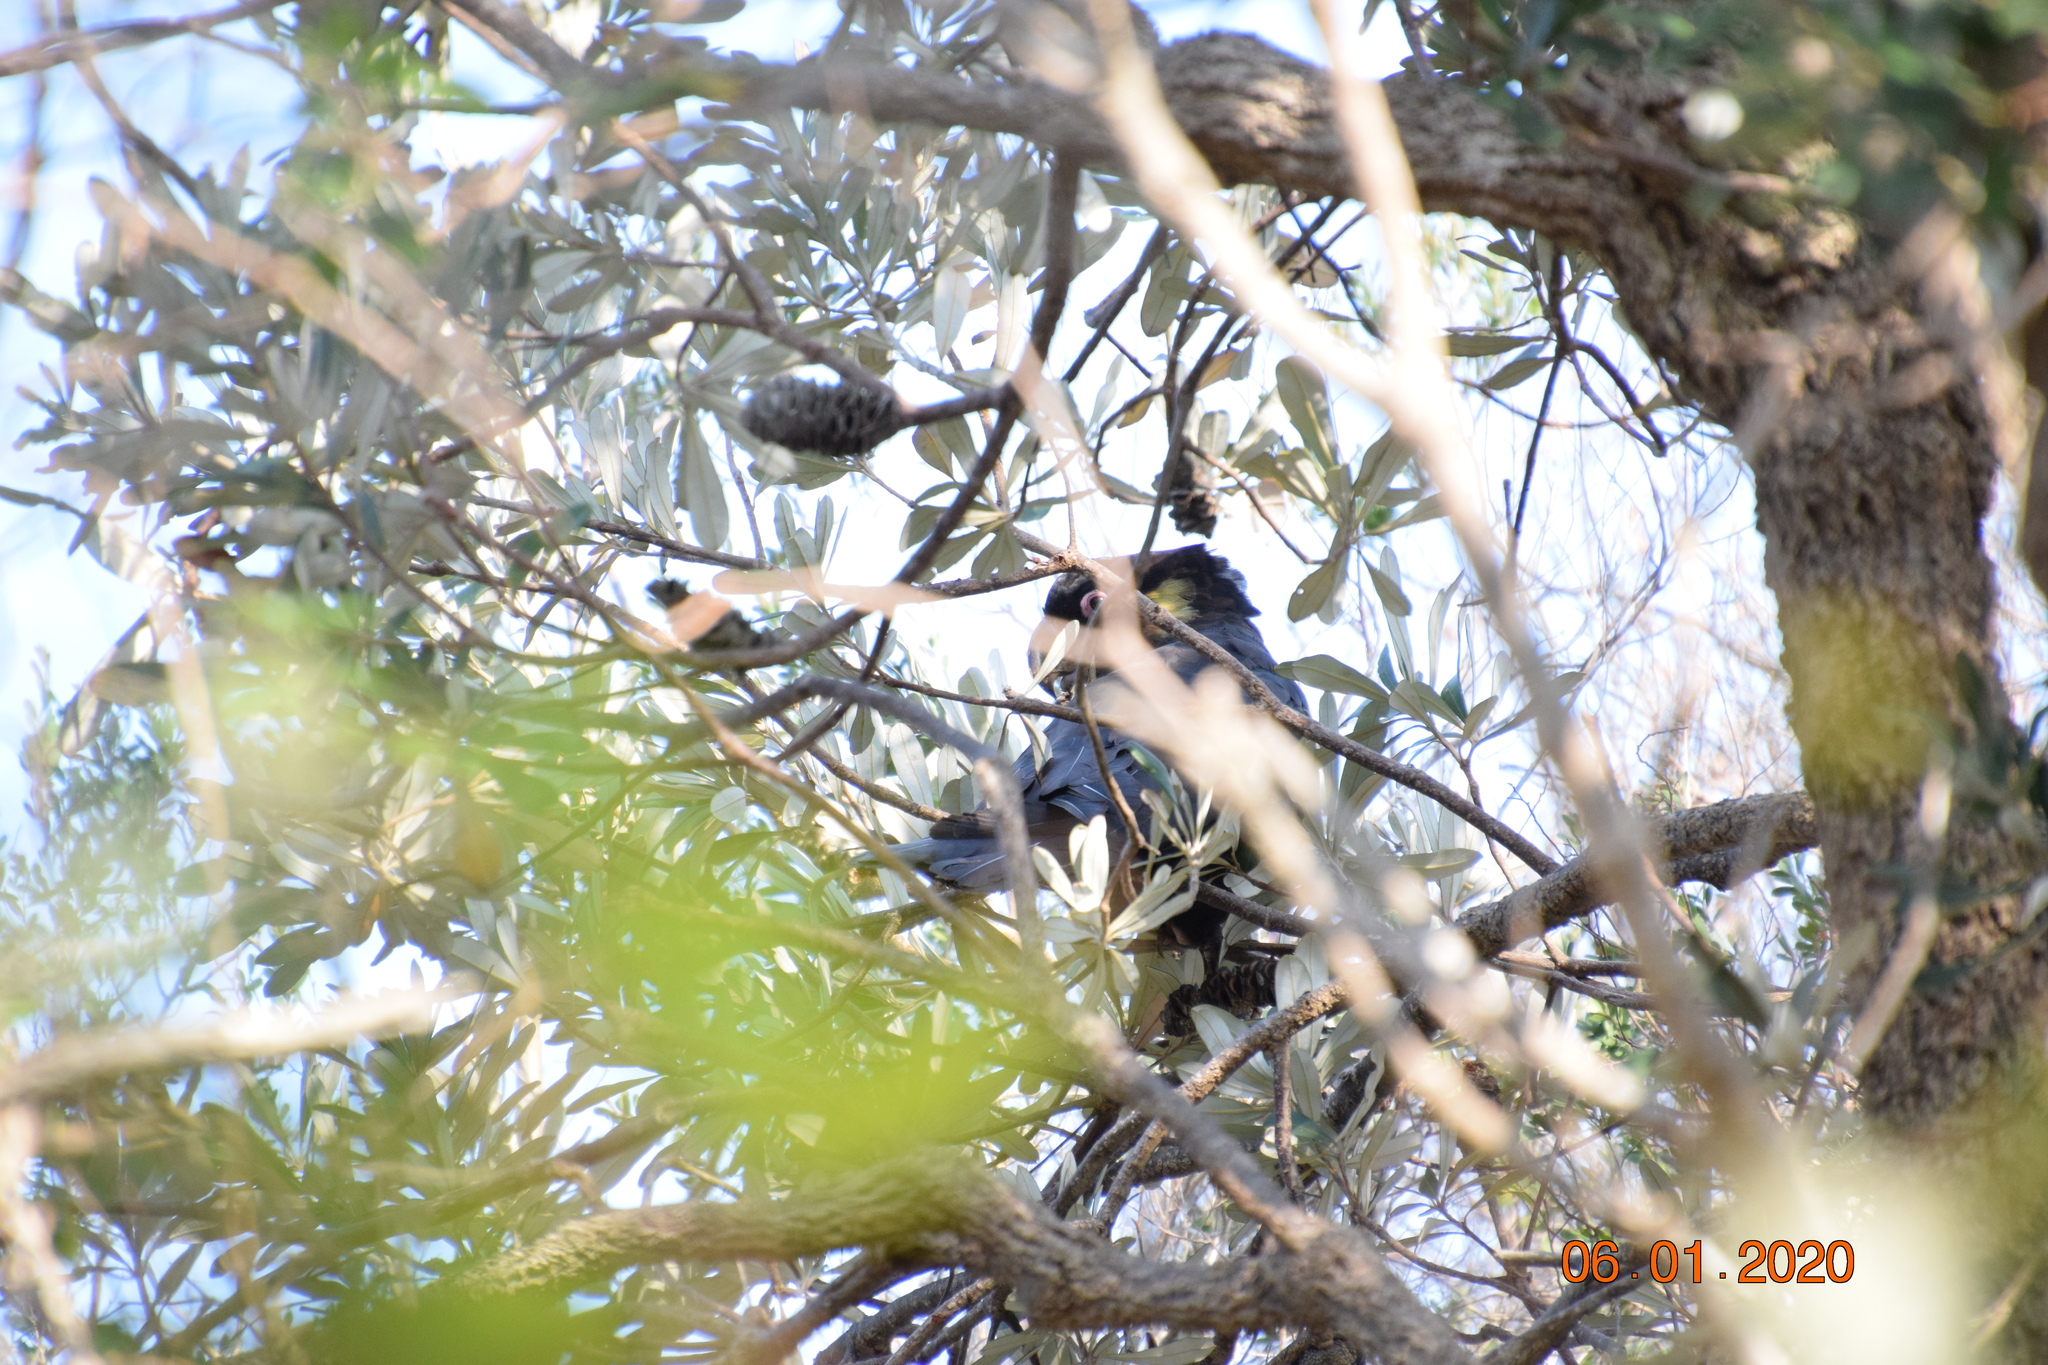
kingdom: Animalia
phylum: Chordata
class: Aves
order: Psittaciformes
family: Cacatuidae
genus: Zanda
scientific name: Zanda funerea
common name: Yellow-tailed black-cockatoo
